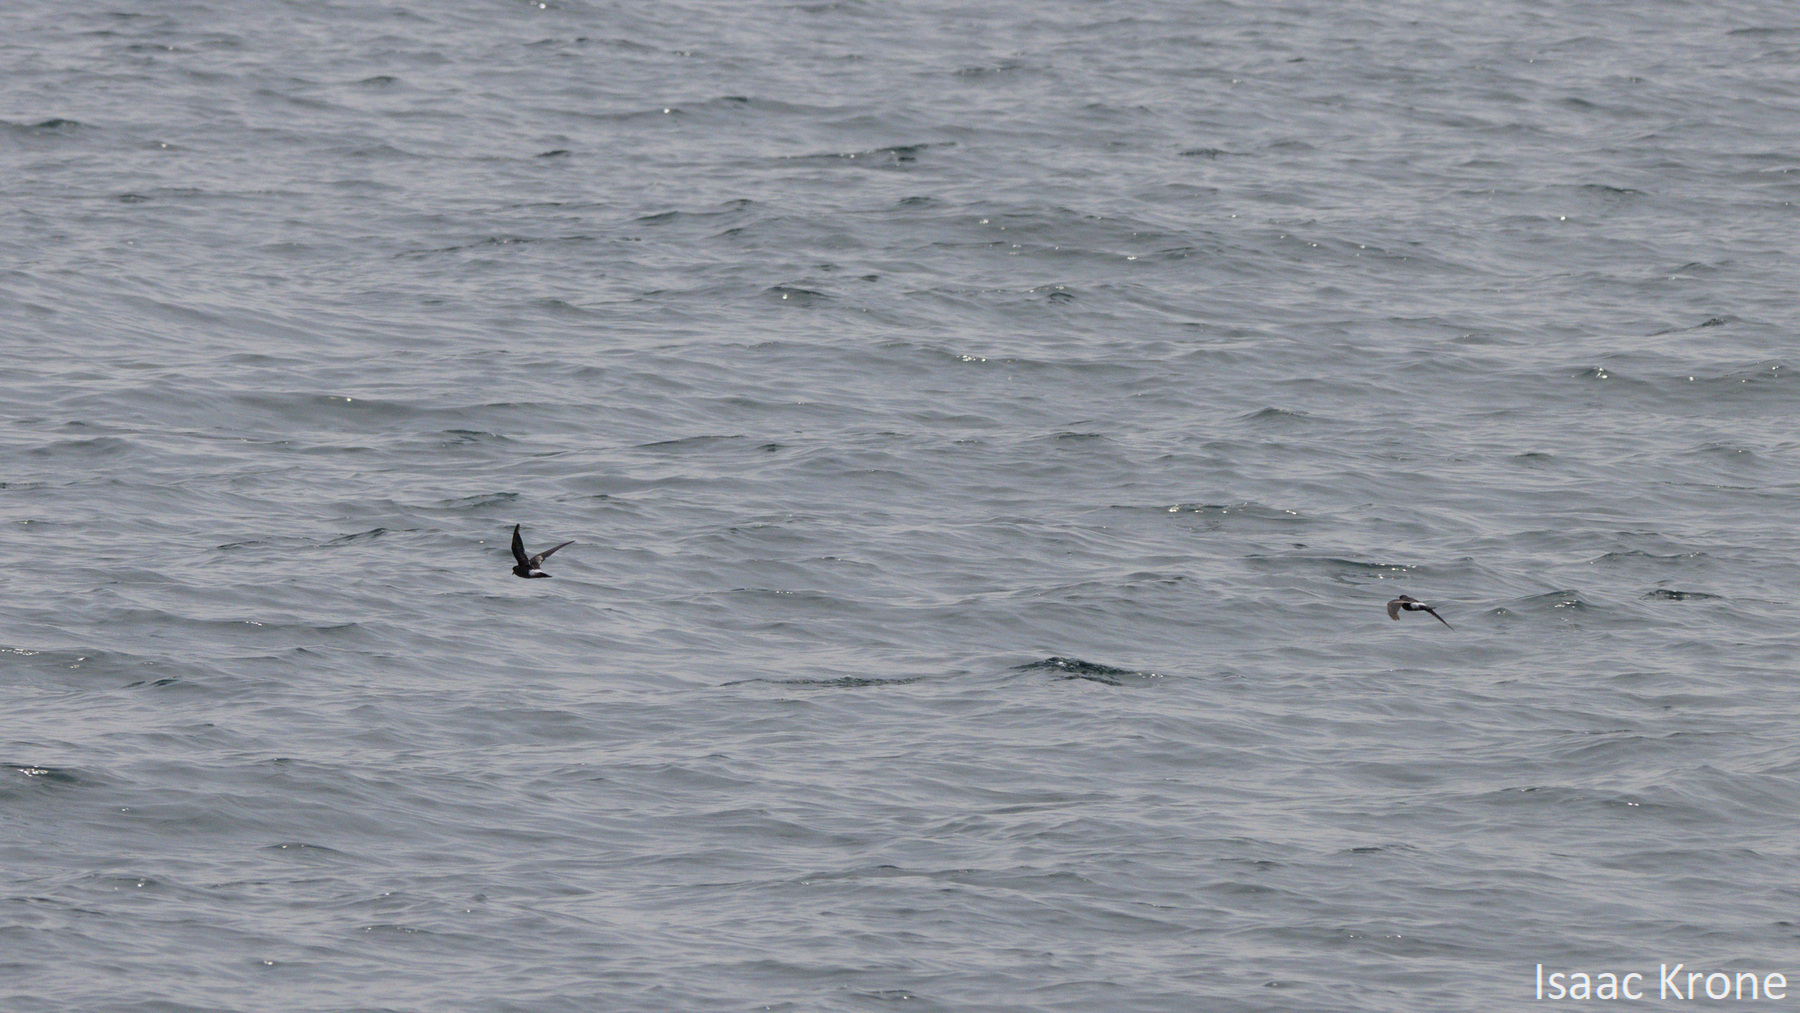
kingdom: Animalia
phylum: Chordata
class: Aves
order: Procellariiformes
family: Hydrobatidae
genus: Oceanites
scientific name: Oceanites oceanicus
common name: Wilson's storm petrel
